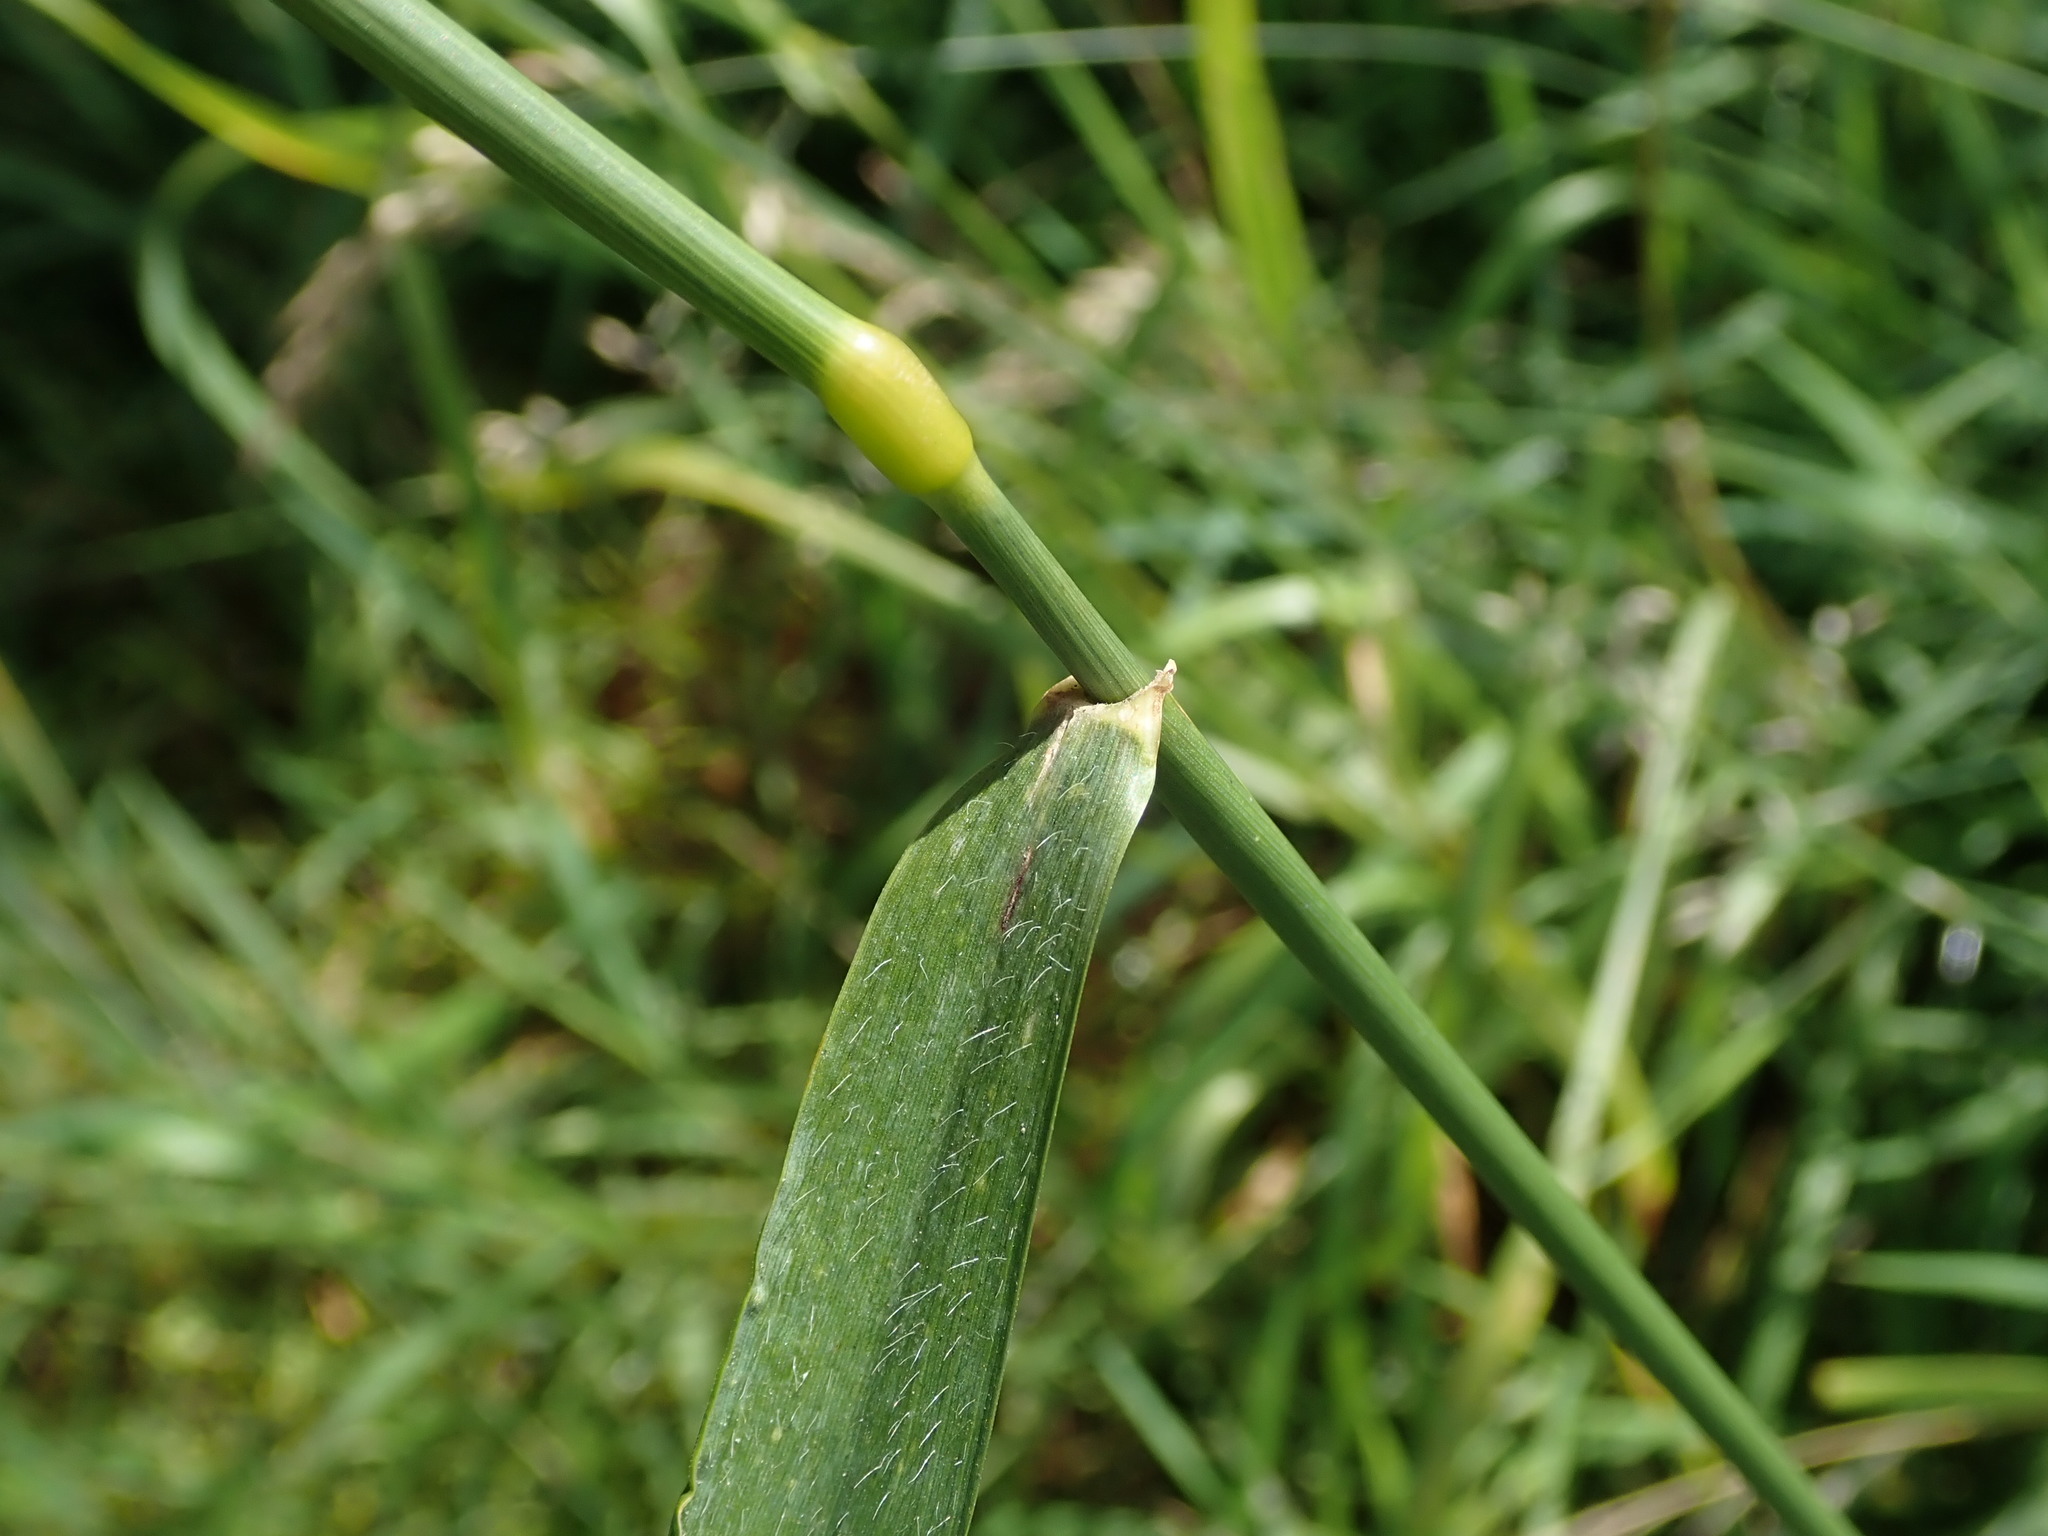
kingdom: Plantae
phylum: Tracheophyta
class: Liliopsida
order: Poales
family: Poaceae
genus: Elymus
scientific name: Elymus repens
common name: Quackgrass
